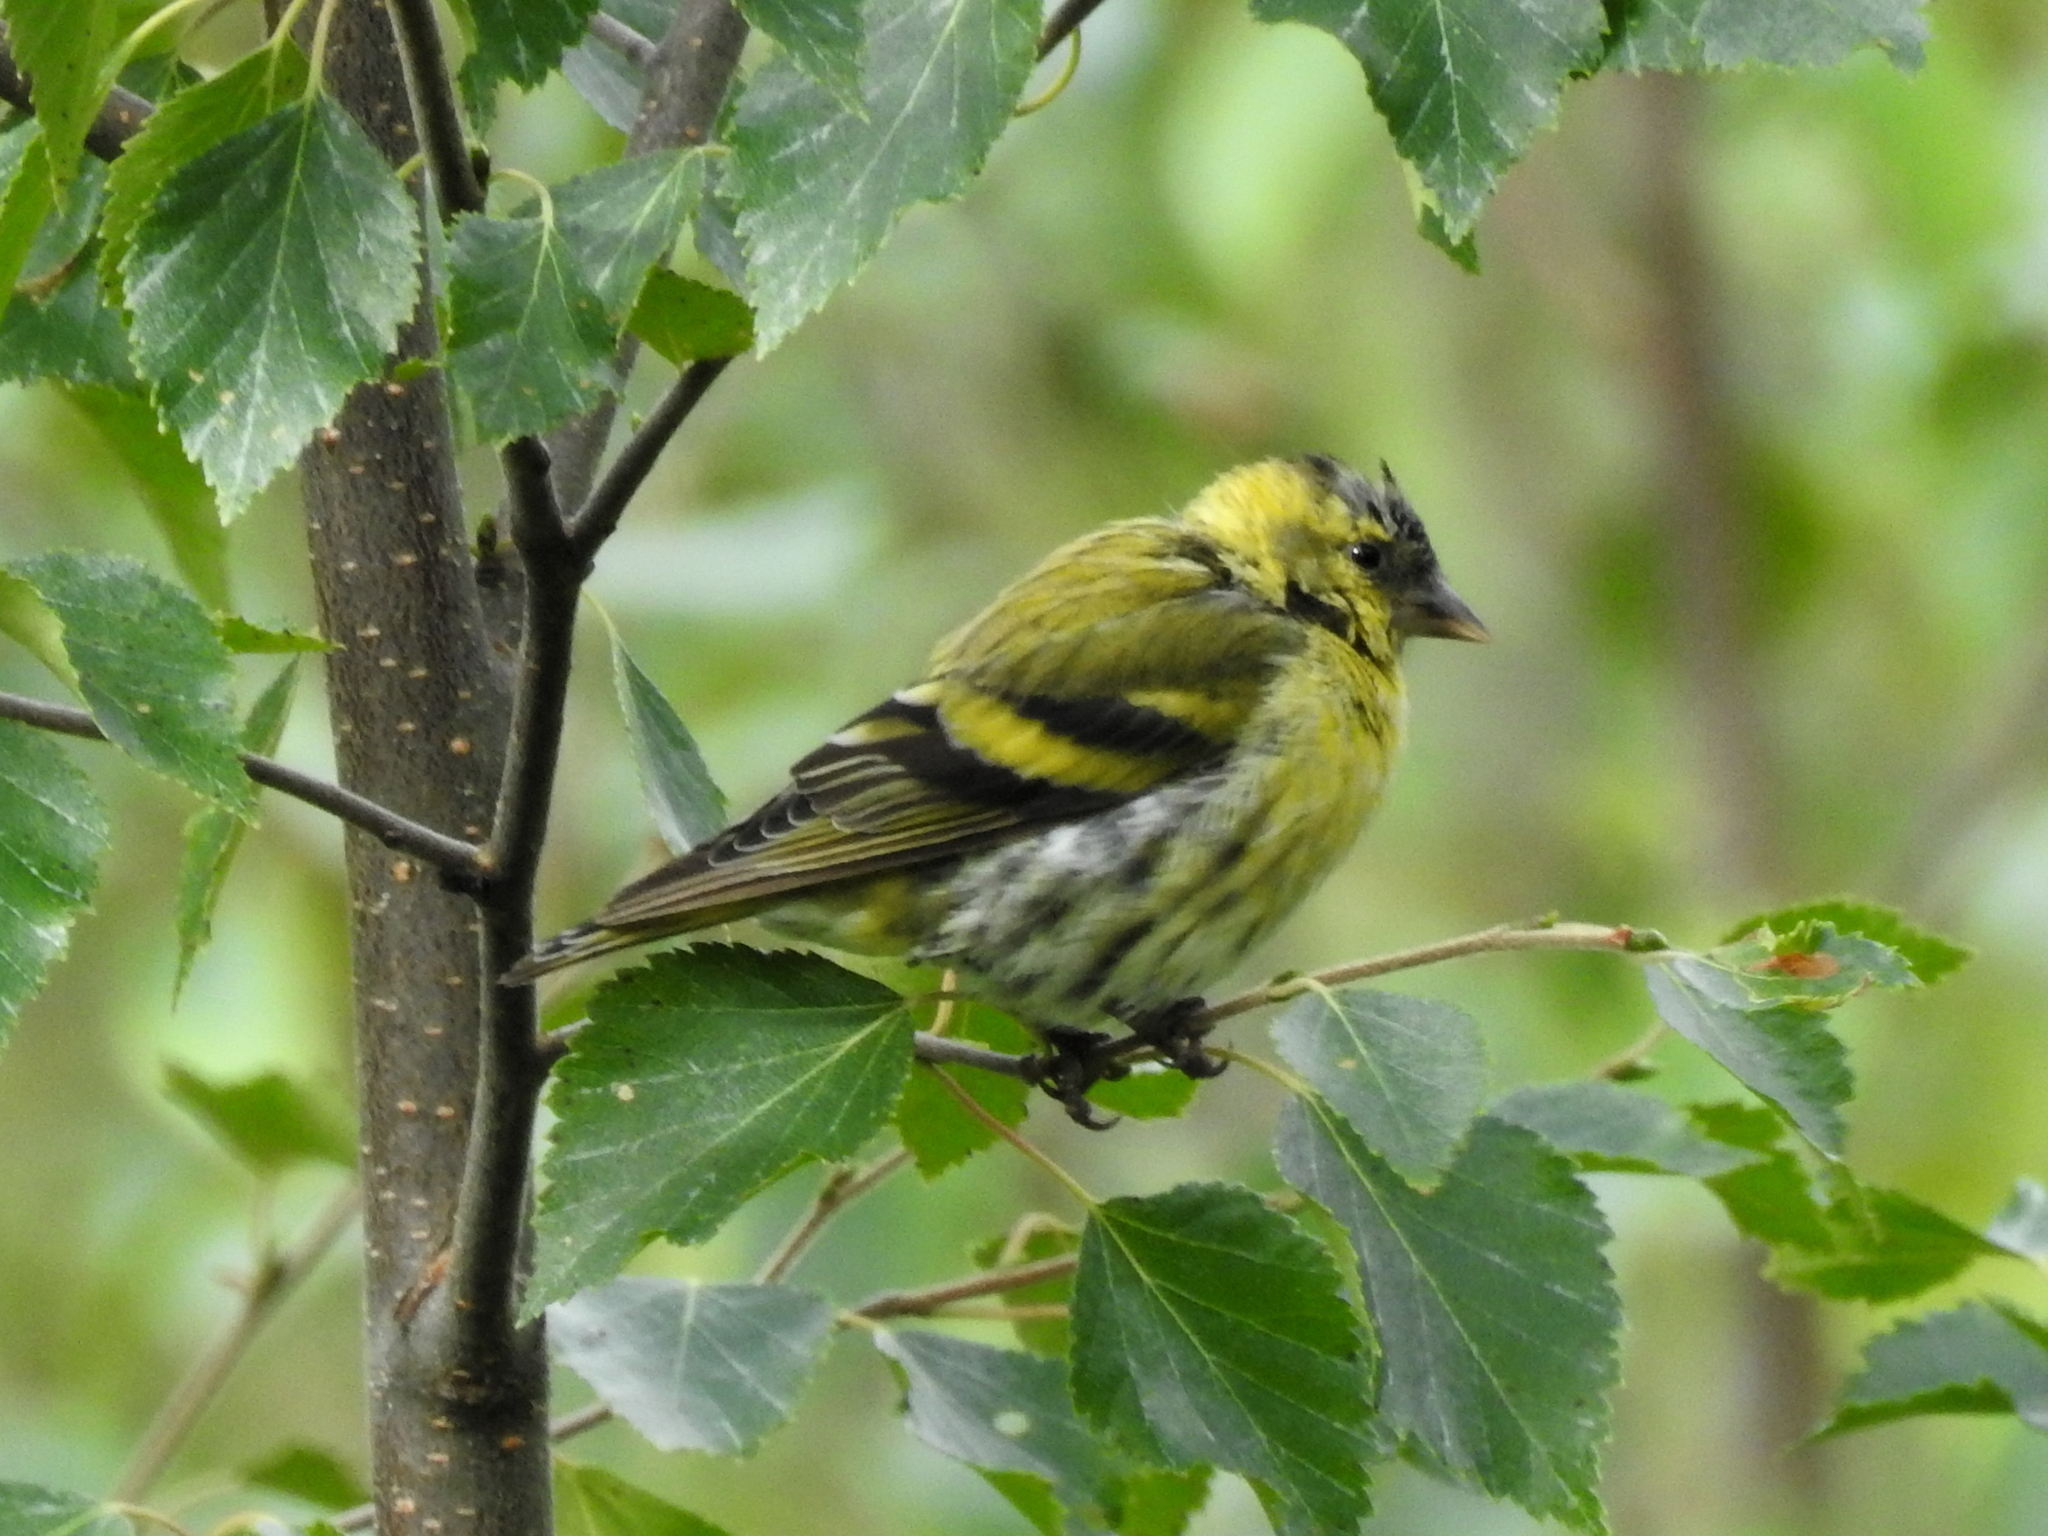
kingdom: Animalia
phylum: Chordata
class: Aves
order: Passeriformes
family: Fringillidae
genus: Spinus
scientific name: Spinus spinus
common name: Eurasian siskin
